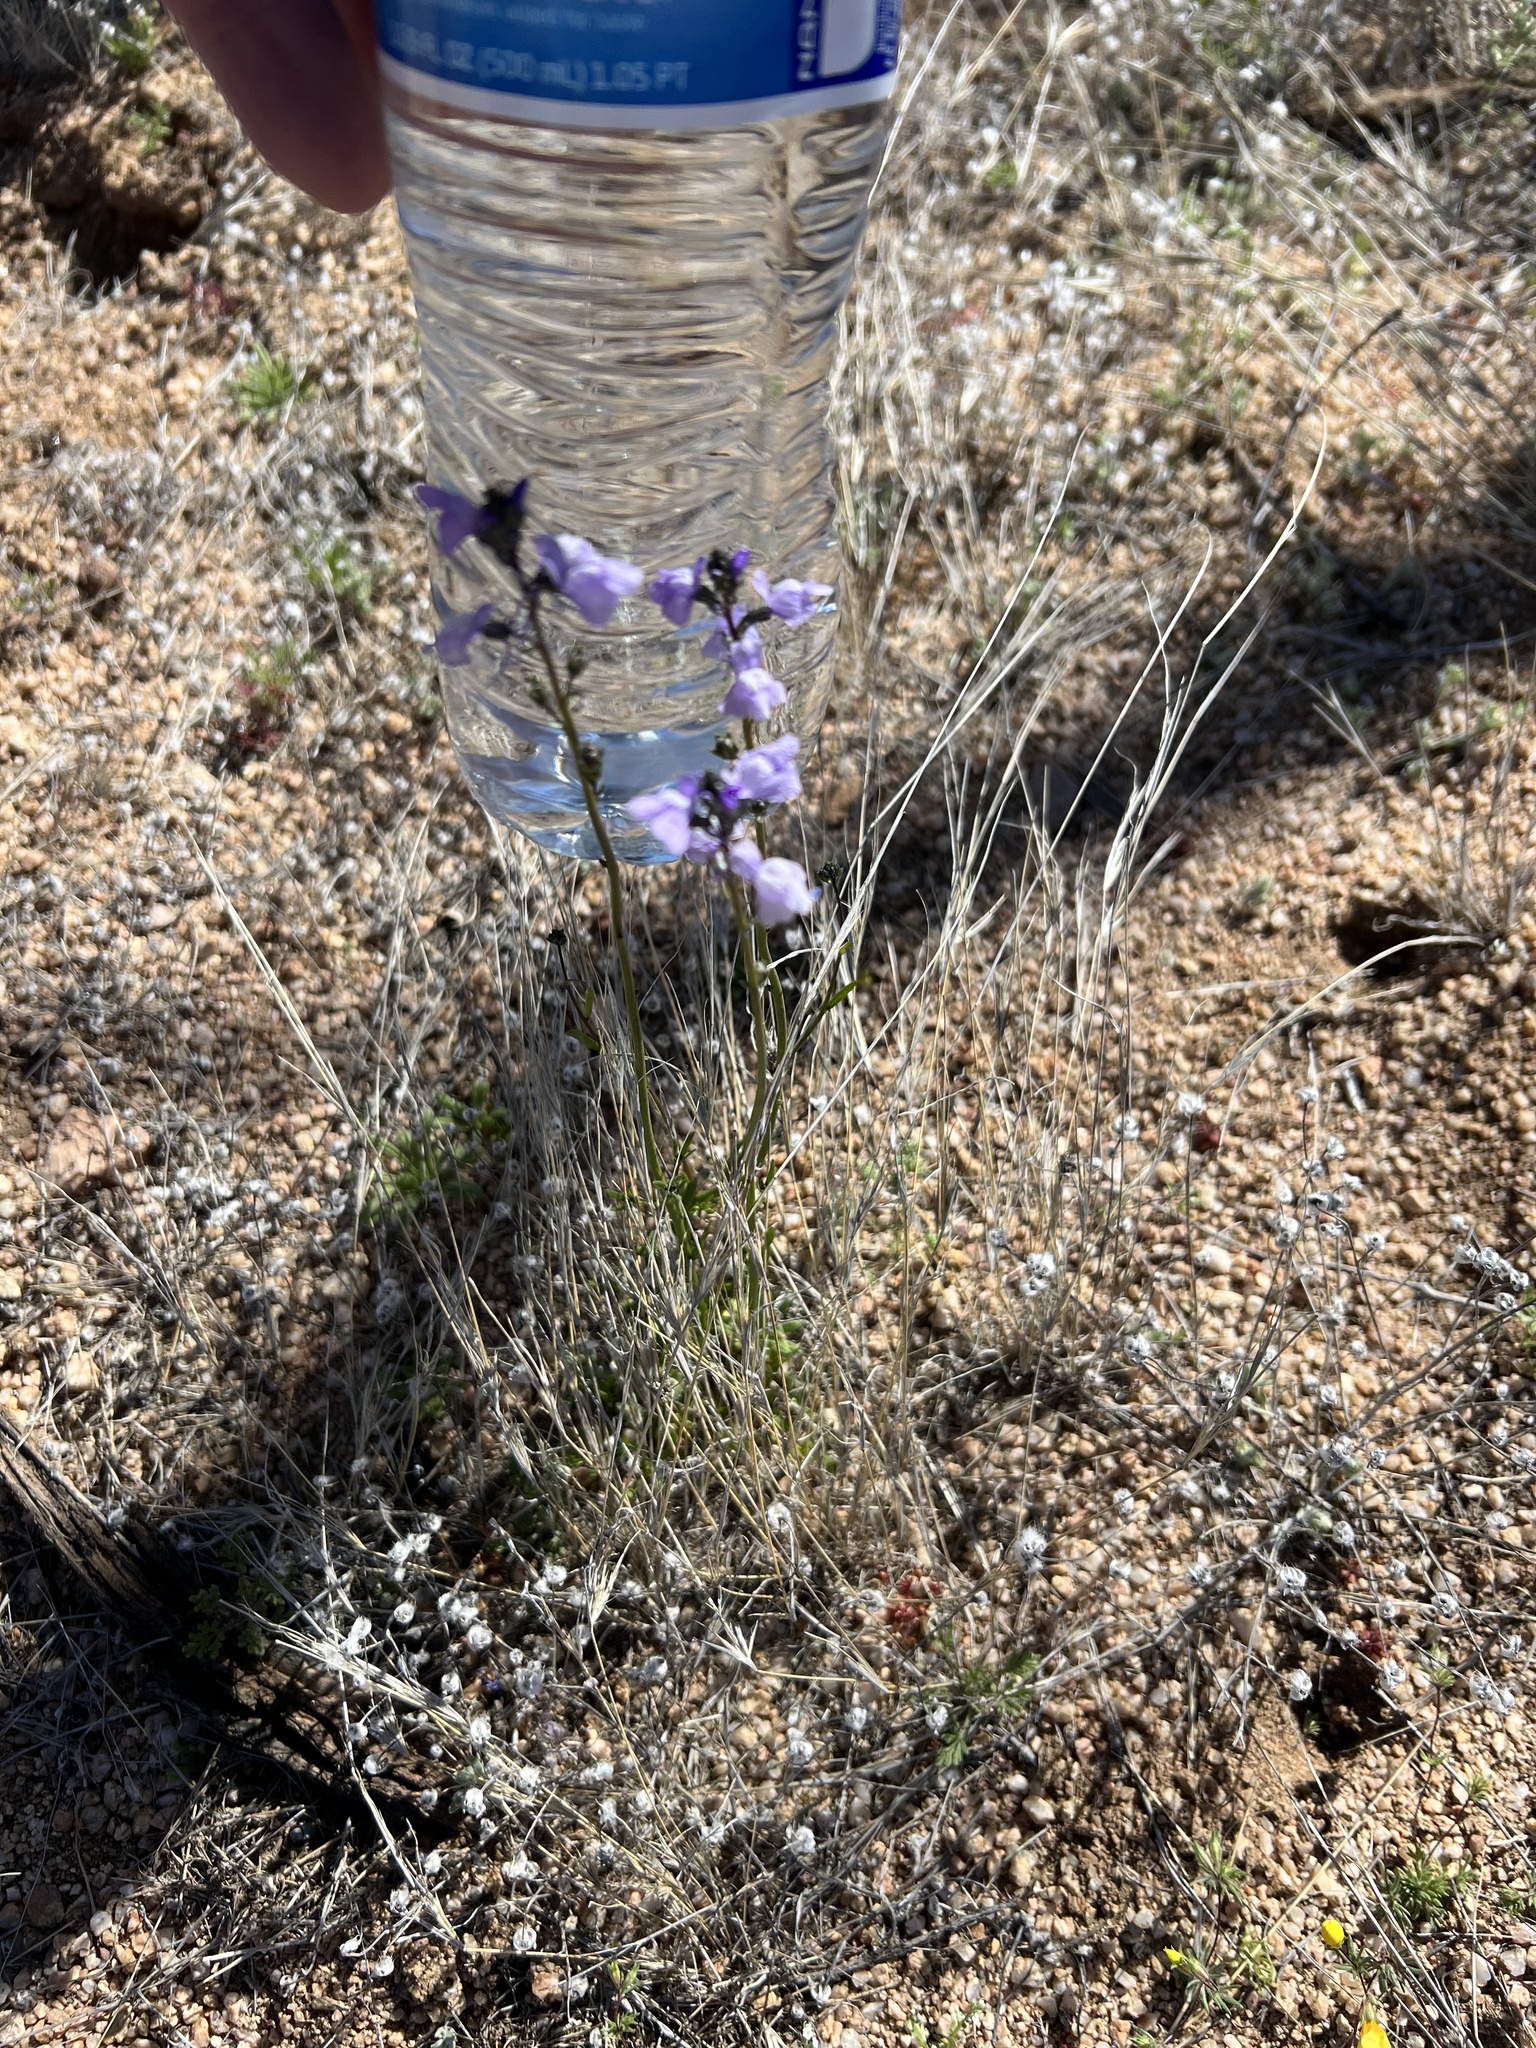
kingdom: Plantae
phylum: Tracheophyta
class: Magnoliopsida
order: Lamiales
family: Plantaginaceae
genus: Nuttallanthus
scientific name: Nuttallanthus texanus
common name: Texas toadflax
